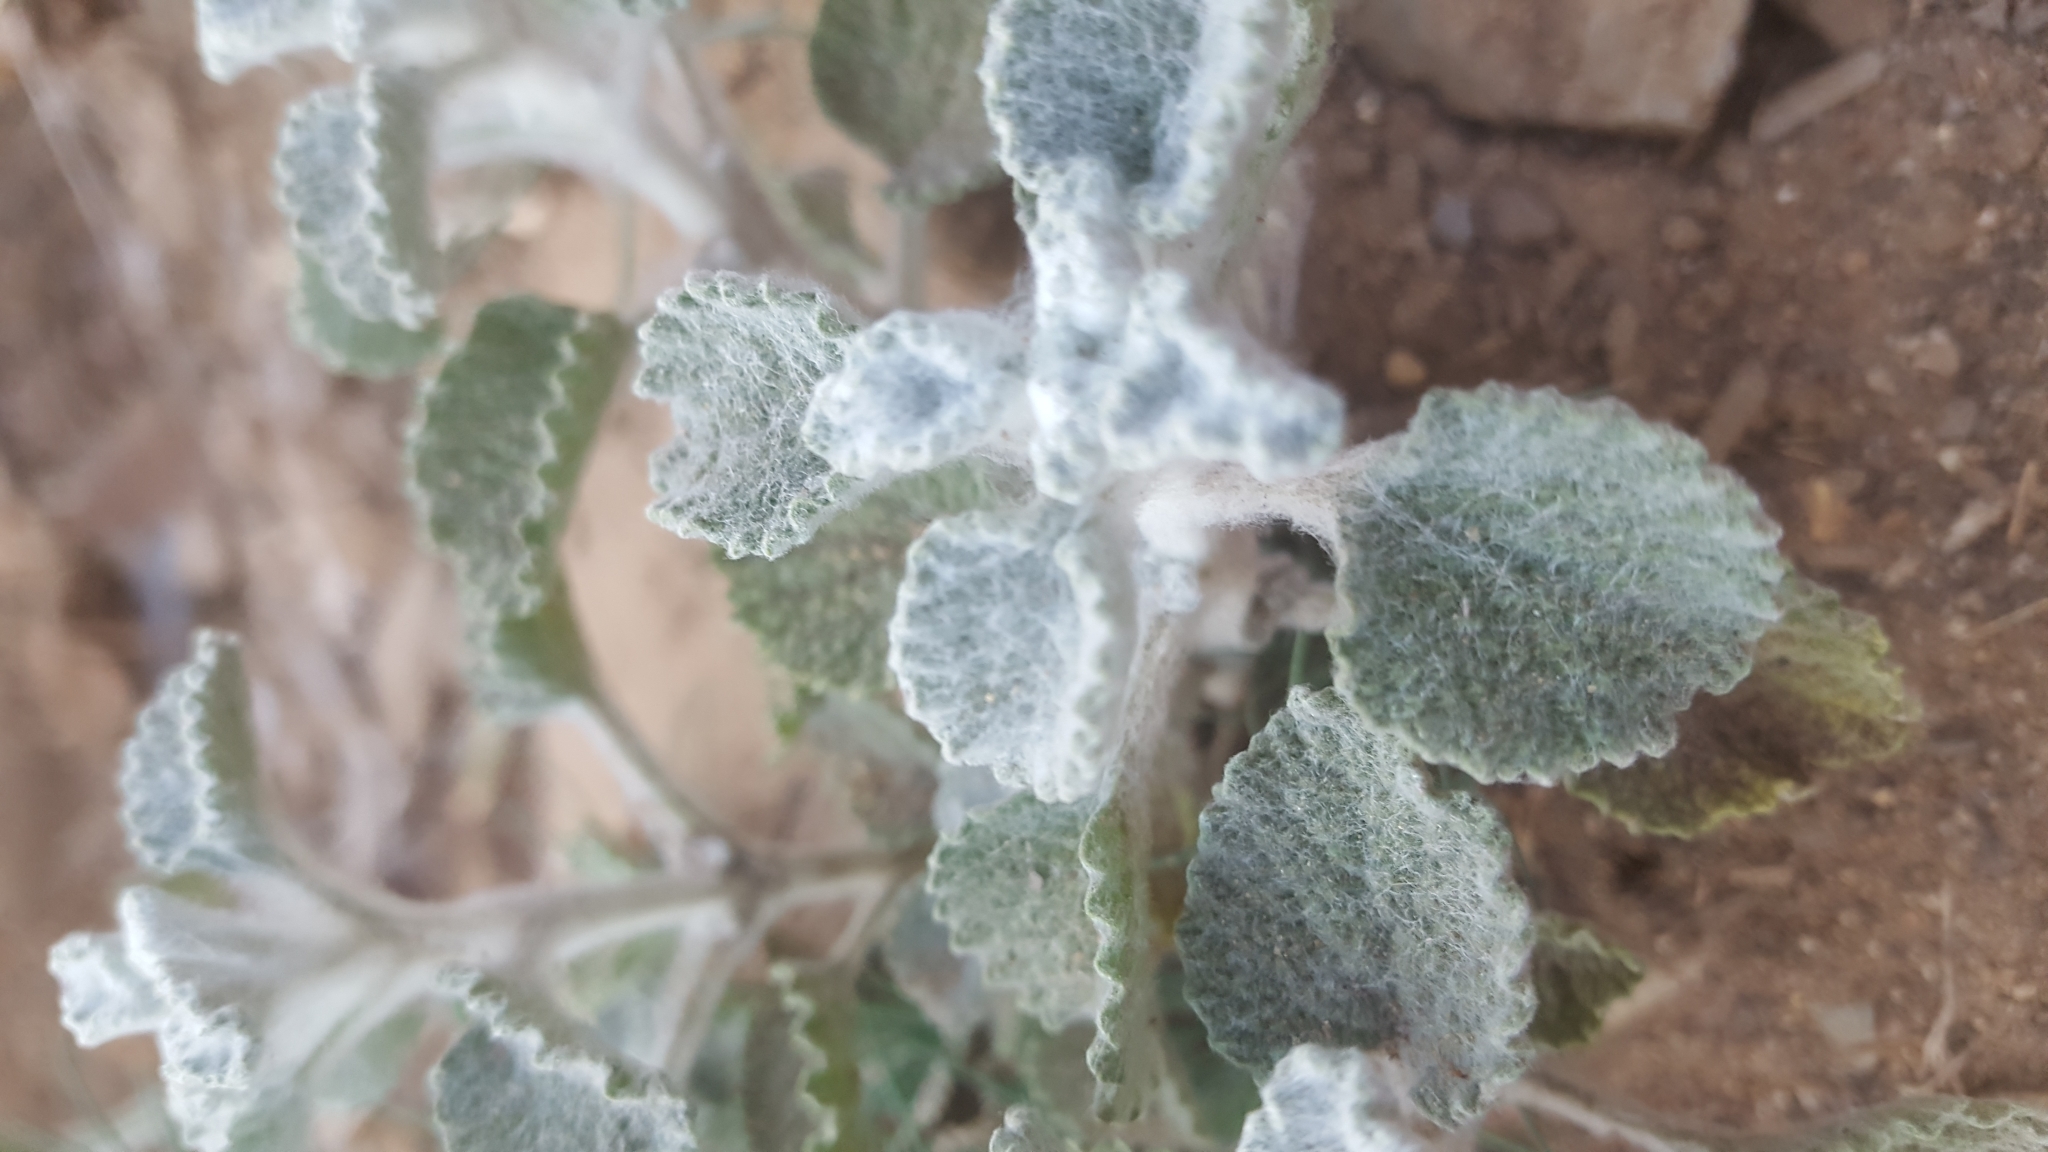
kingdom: Plantae
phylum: Tracheophyta
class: Magnoliopsida
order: Lamiales
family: Lamiaceae
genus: Marrubium
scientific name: Marrubium vulgare
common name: Horehound
